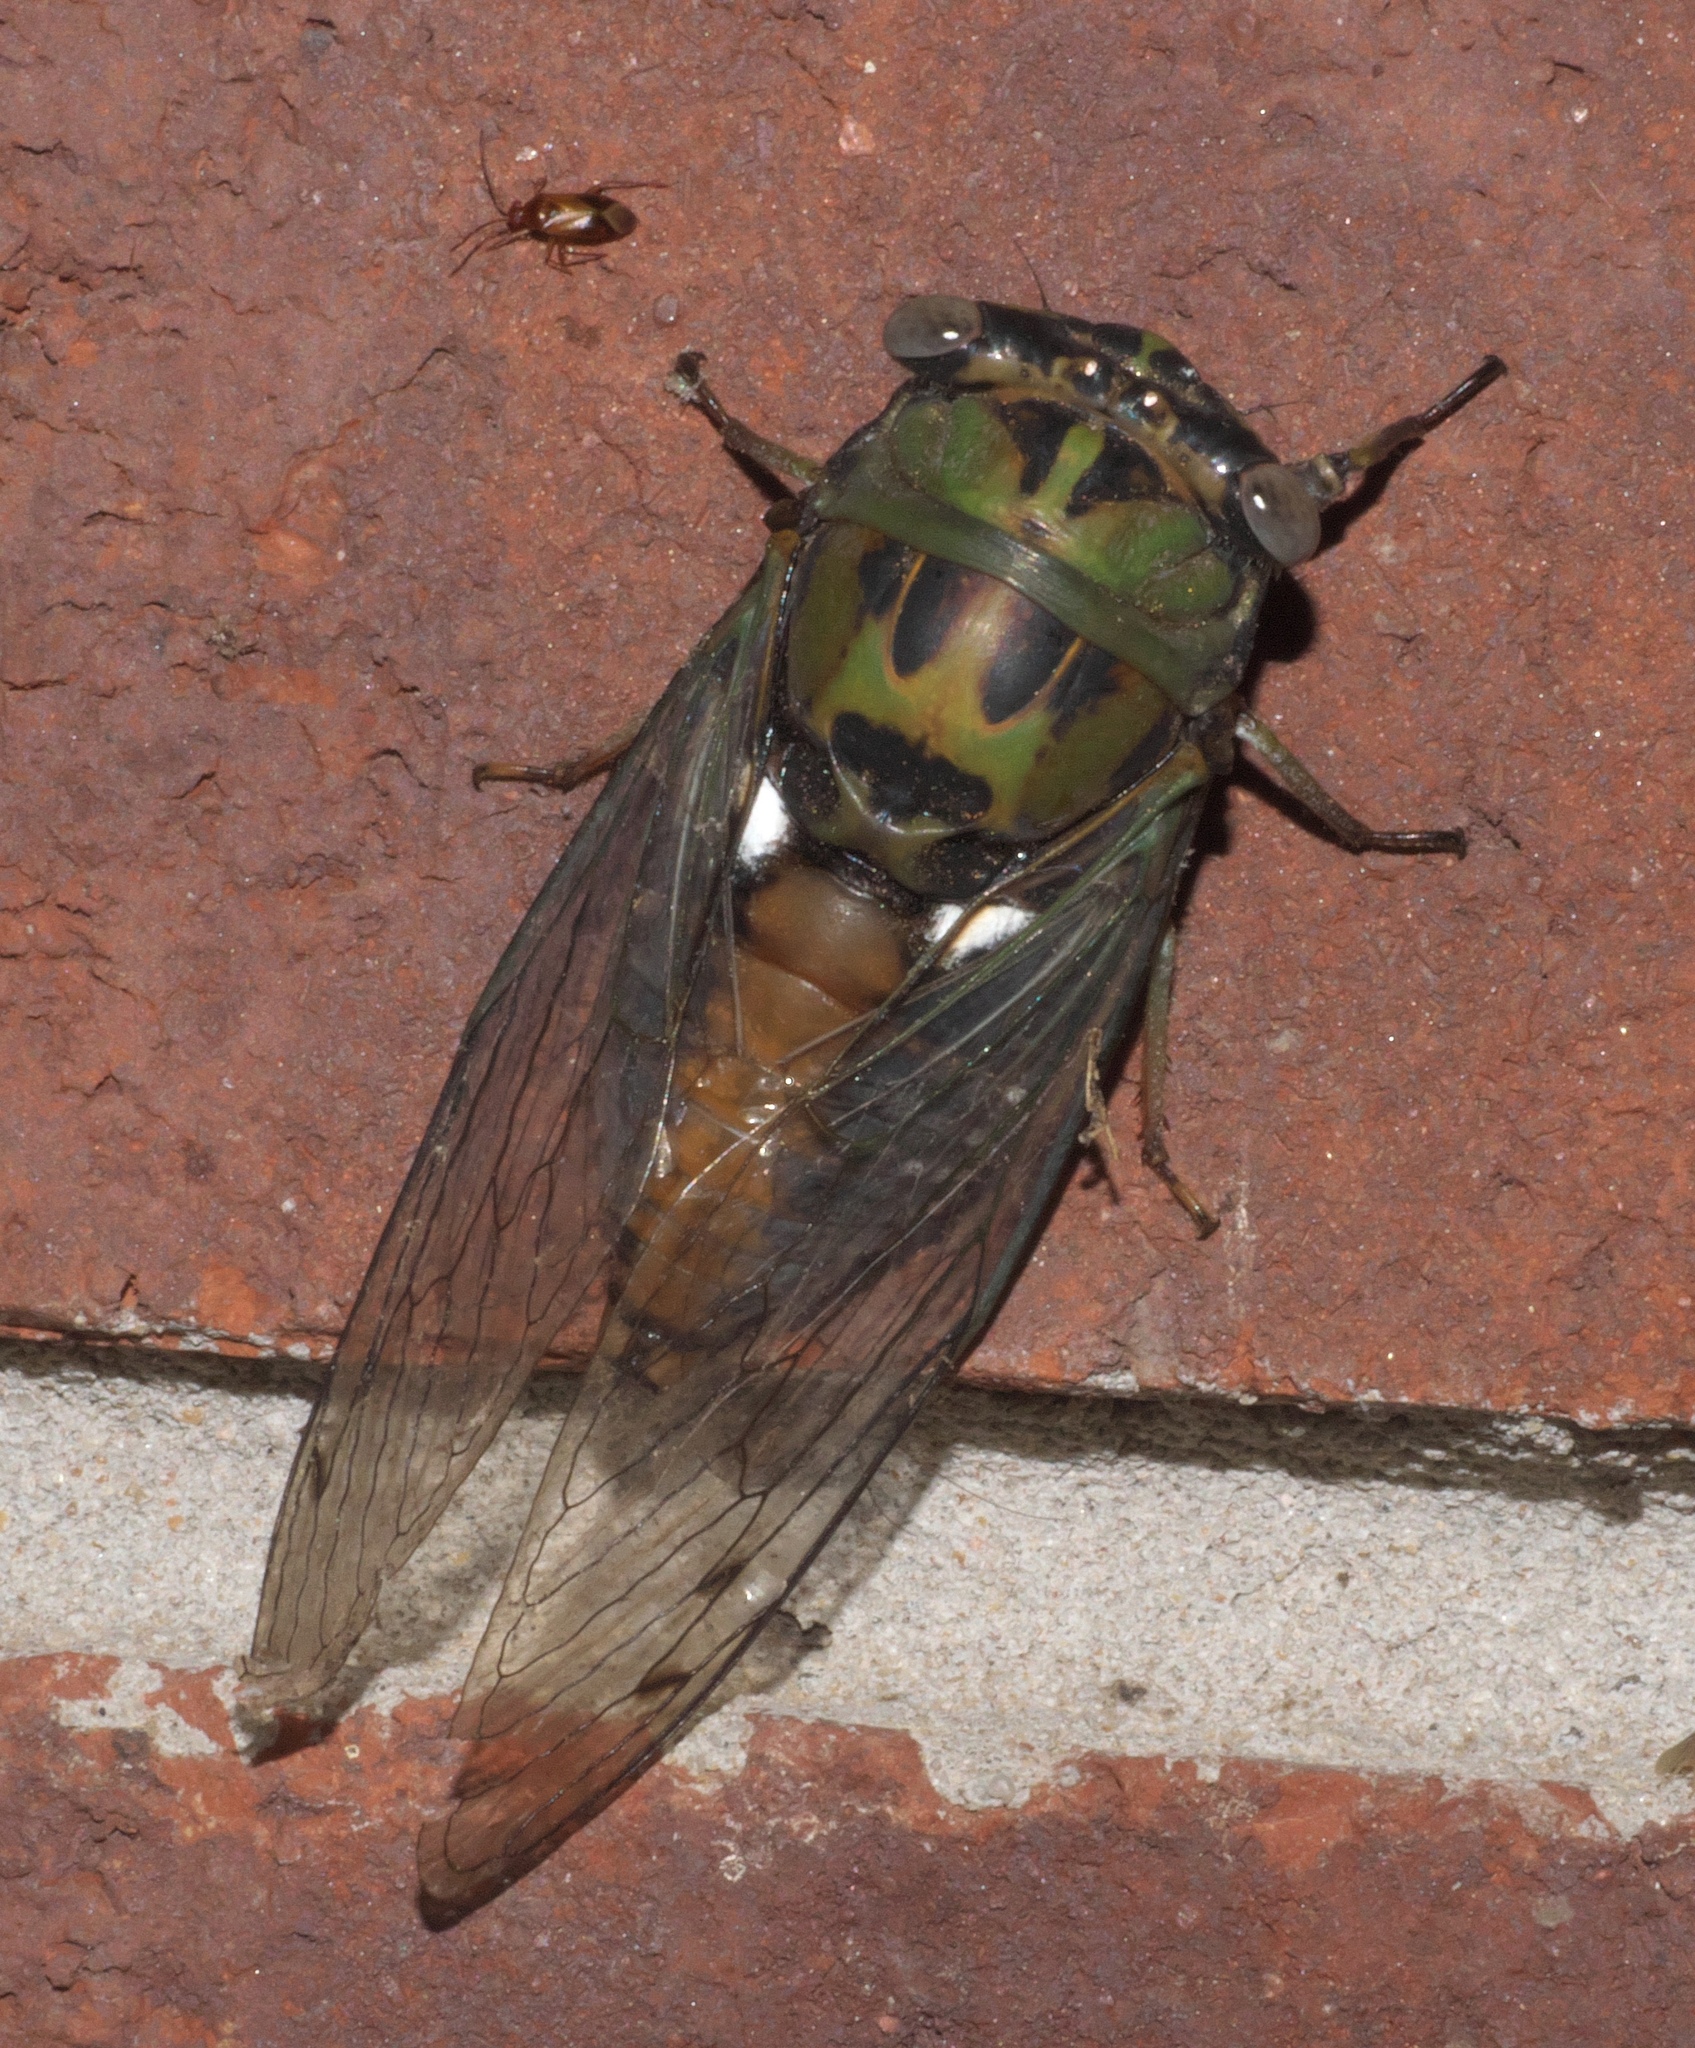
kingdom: Animalia
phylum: Arthropoda
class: Insecta
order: Hemiptera
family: Cicadidae
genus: Neotibicen
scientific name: Neotibicen pruinosus
